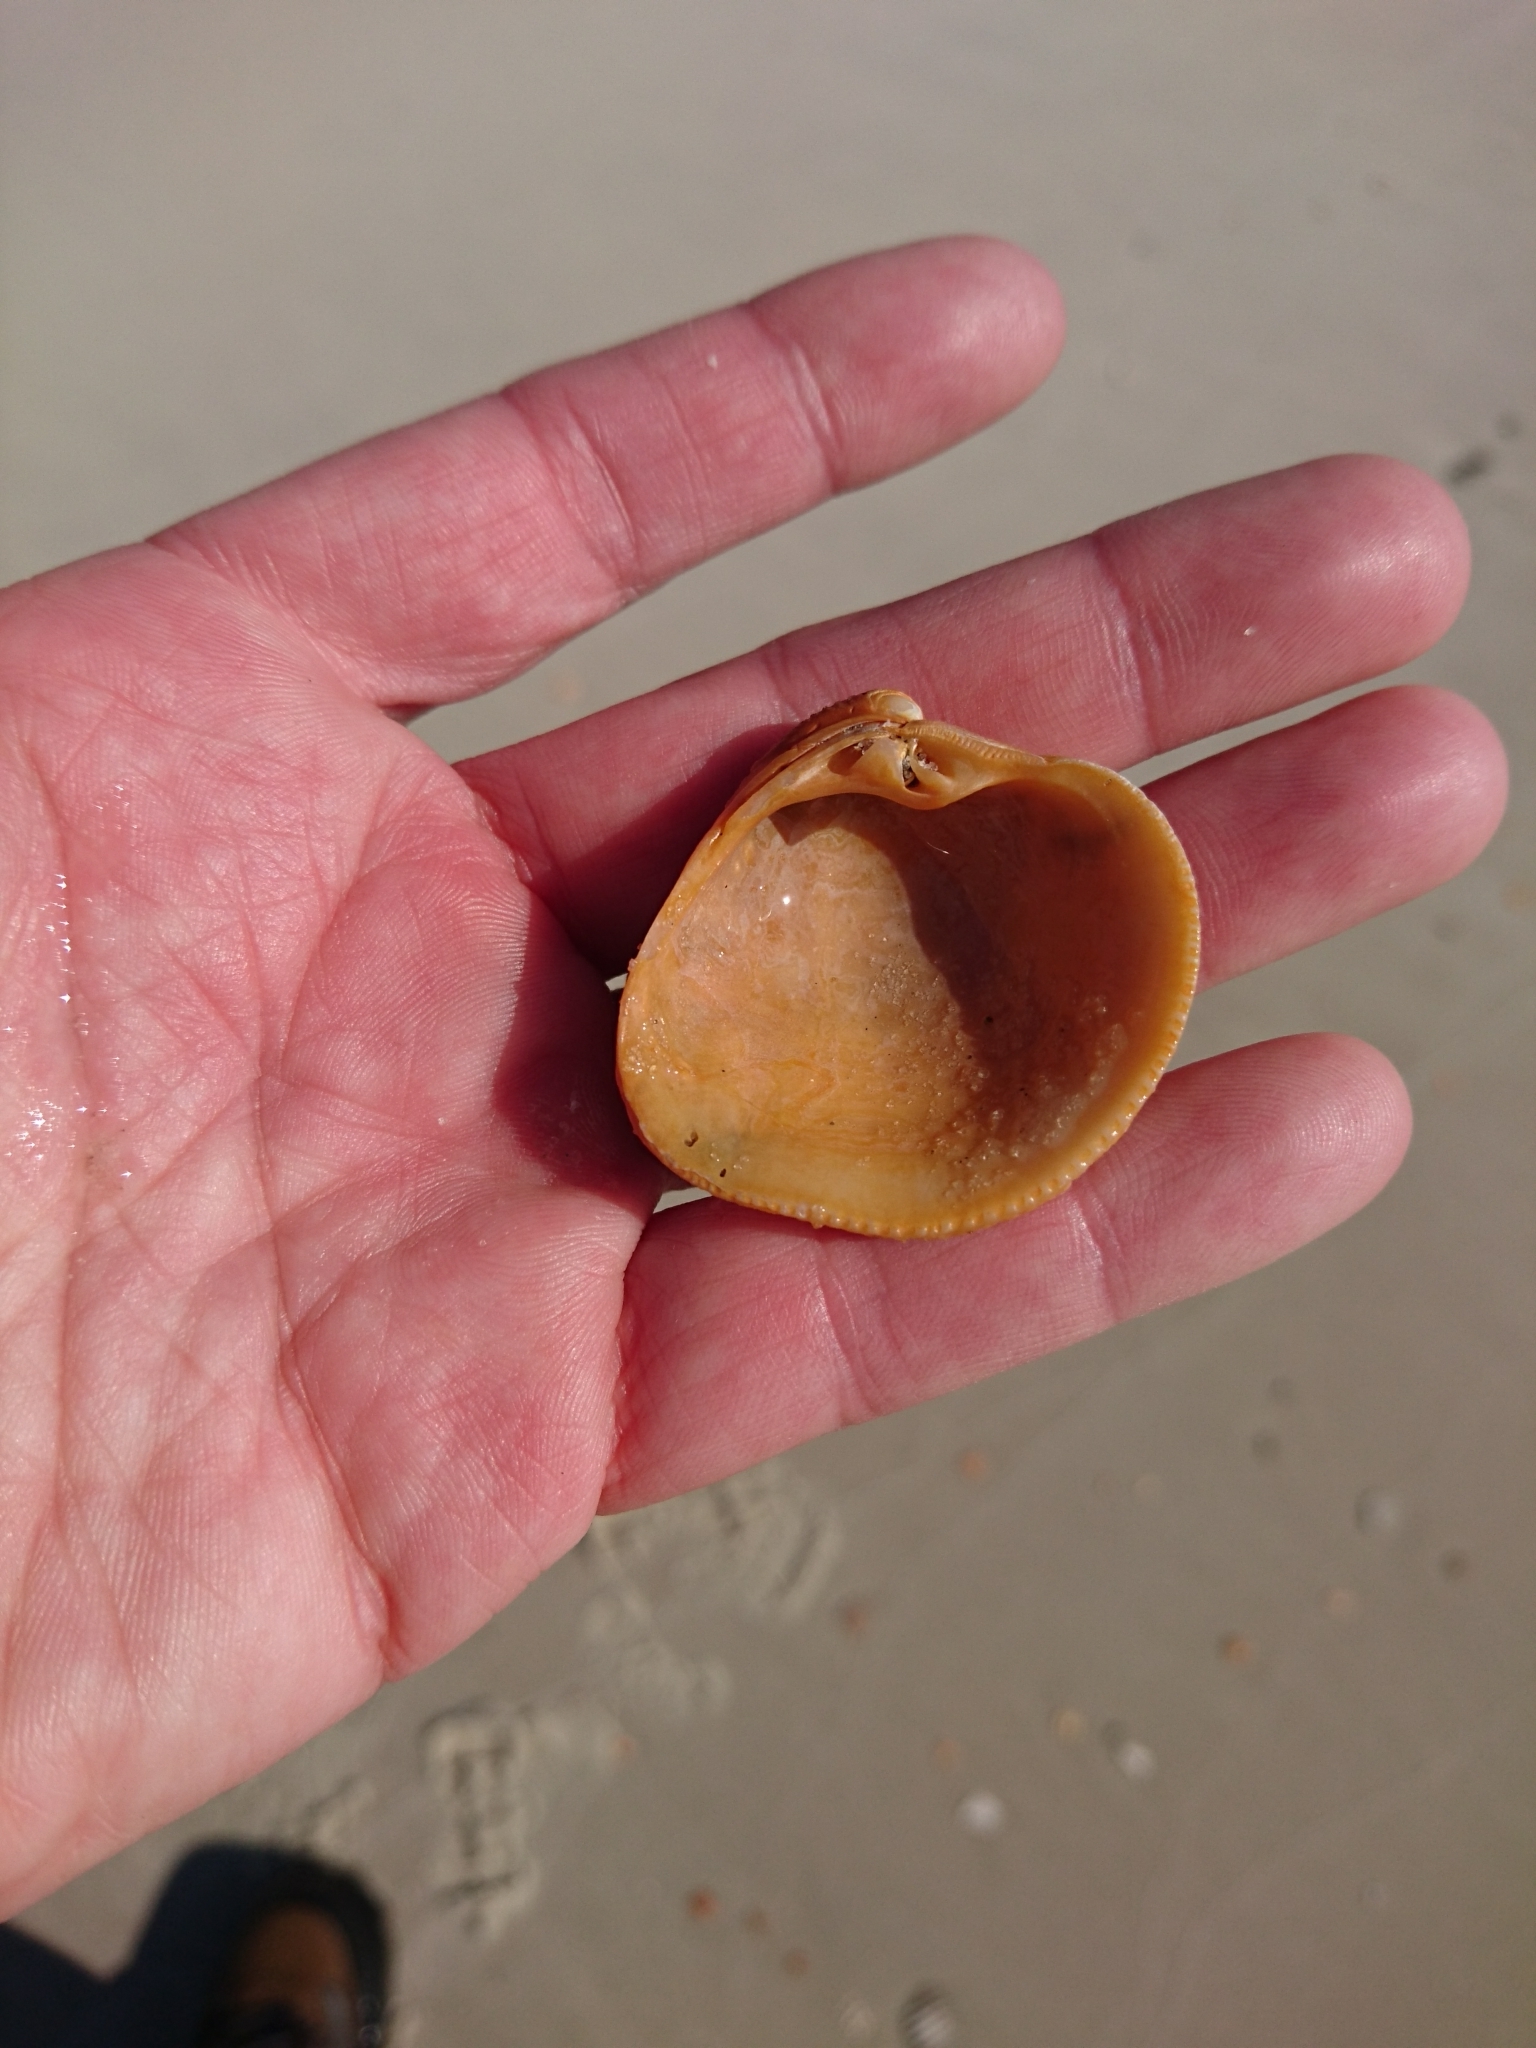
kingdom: Animalia
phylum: Mollusca
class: Bivalvia
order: Venerida
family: Veneridae
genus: Chionopsis
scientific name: Chionopsis intapurpurea
